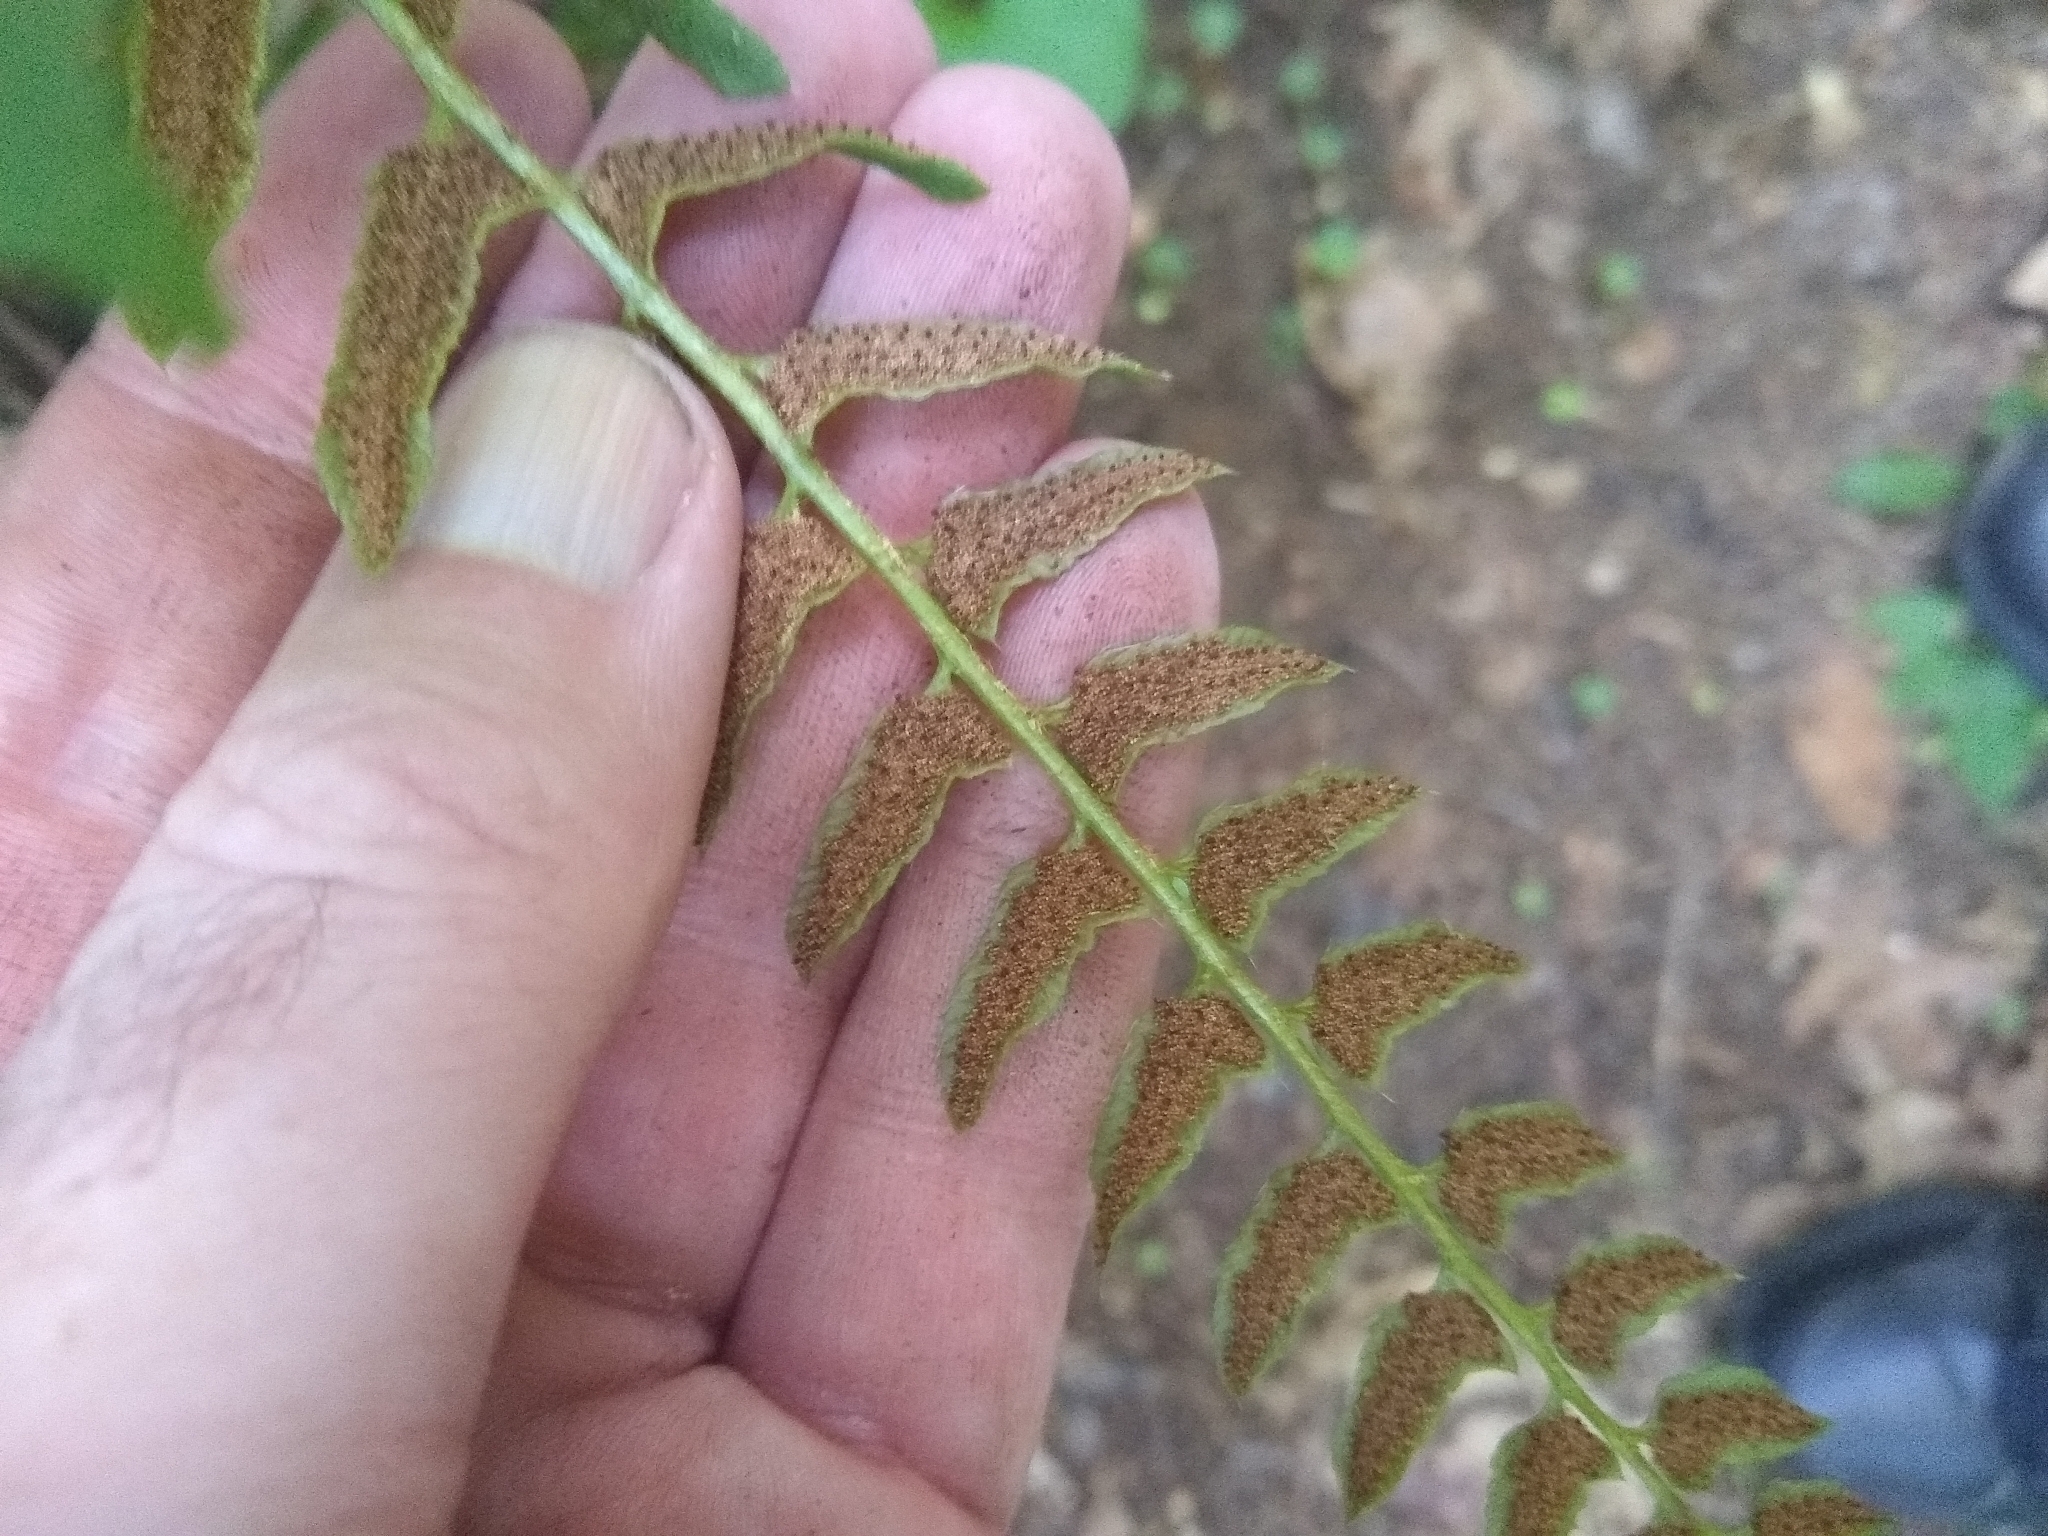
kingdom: Plantae
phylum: Tracheophyta
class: Polypodiopsida
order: Polypodiales
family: Dryopteridaceae
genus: Polystichum
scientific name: Polystichum acrostichoides
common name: Christmas fern
